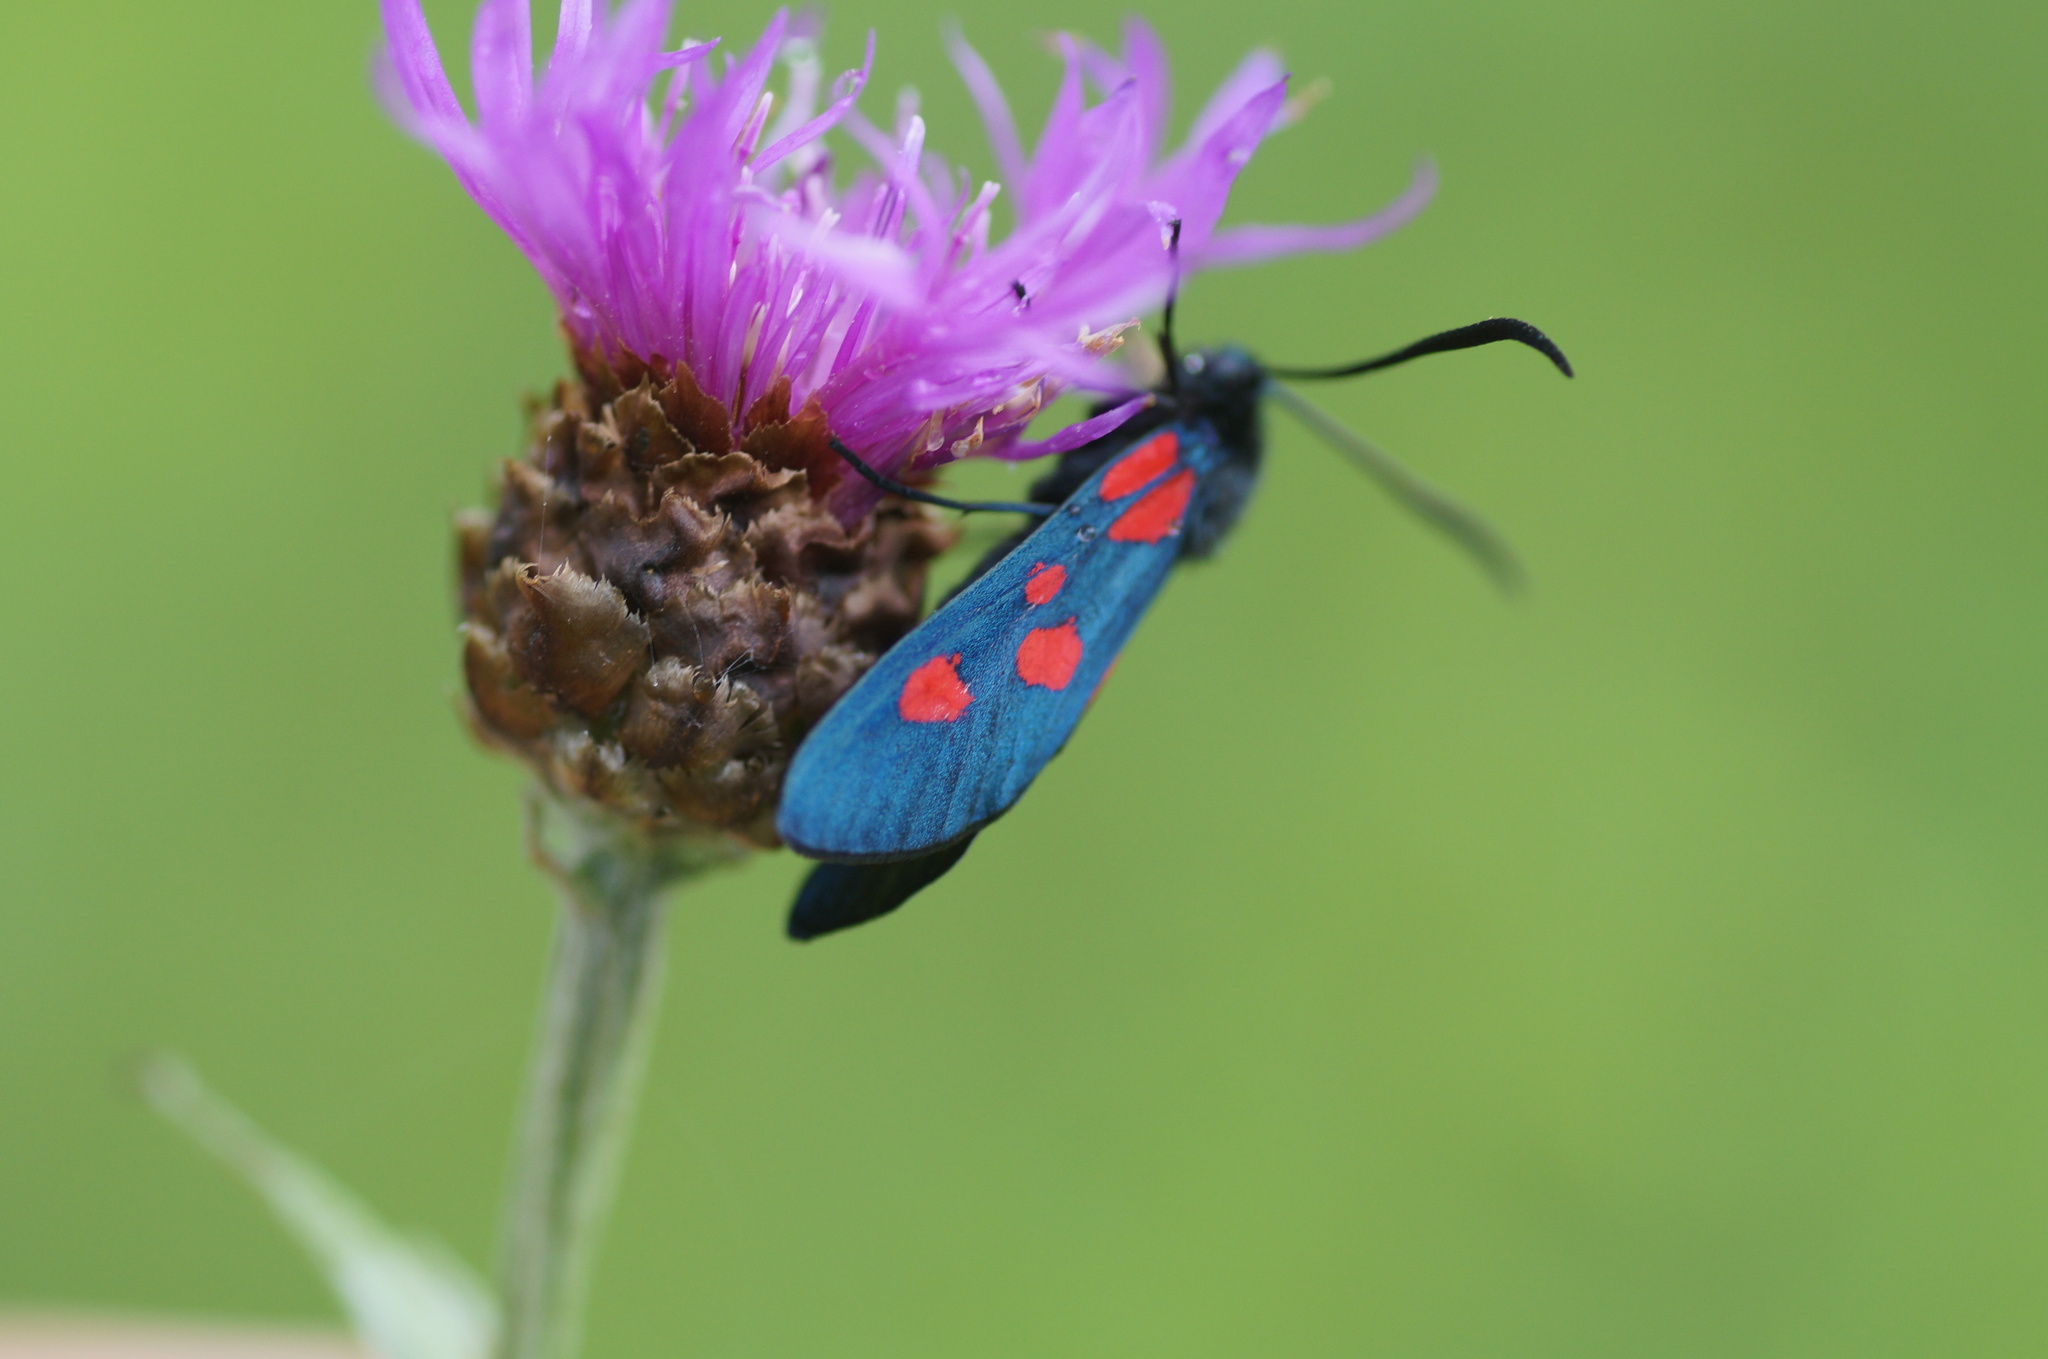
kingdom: Animalia
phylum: Arthropoda
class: Insecta
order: Lepidoptera
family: Zygaenidae
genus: Zygaena
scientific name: Zygaena lonicerae
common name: Narrow-bordered five-spot burnet
